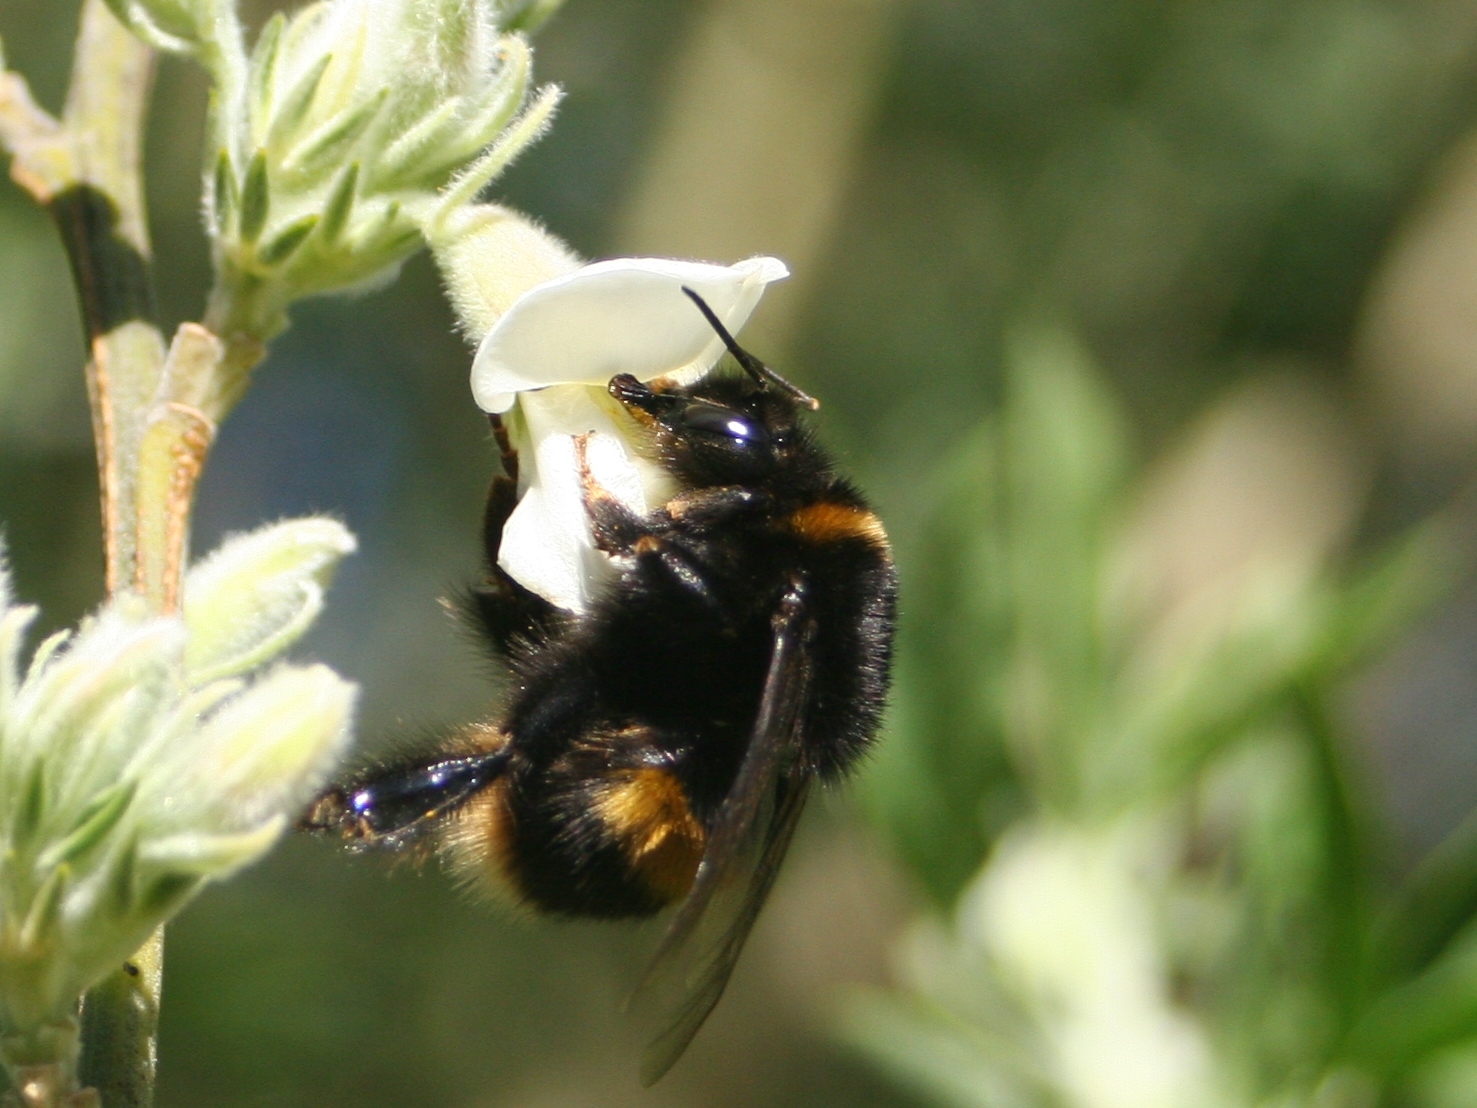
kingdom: Animalia
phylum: Arthropoda
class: Insecta
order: Hymenoptera
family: Apidae
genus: Bombus
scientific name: Bombus terrestris
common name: Buff-tailed bumblebee
